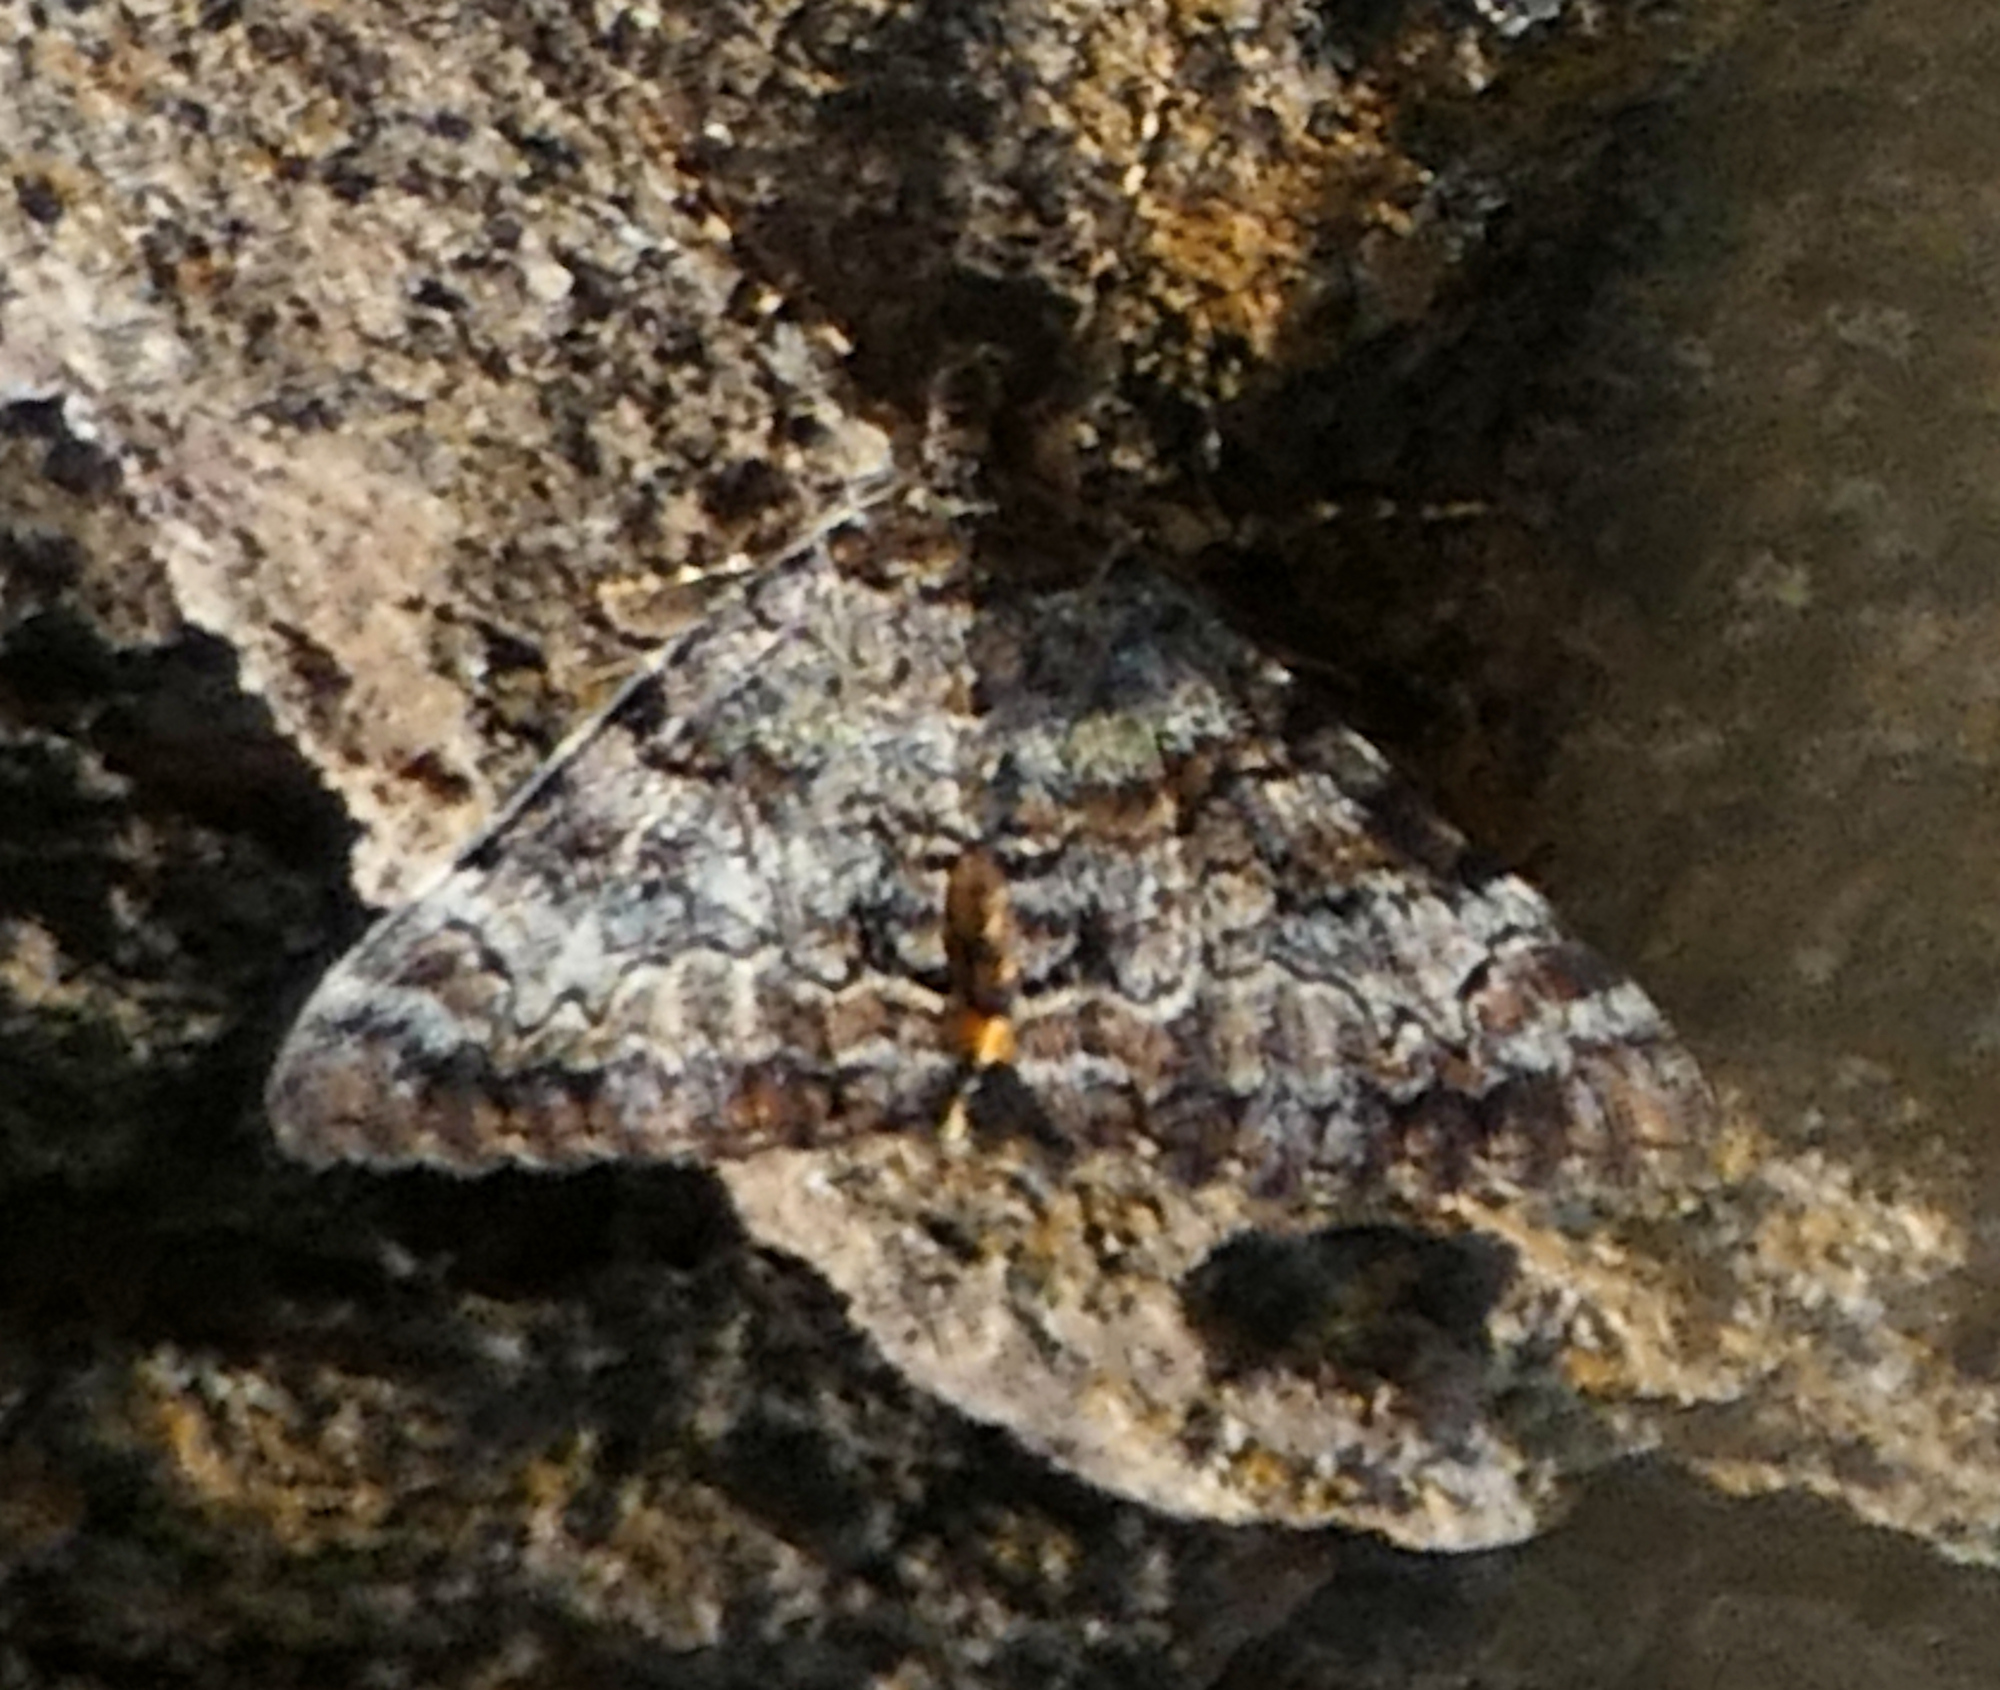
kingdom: Animalia
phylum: Arthropoda
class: Insecta
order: Lepidoptera
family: Erebidae
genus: Catocala
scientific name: Catocala desdemona
